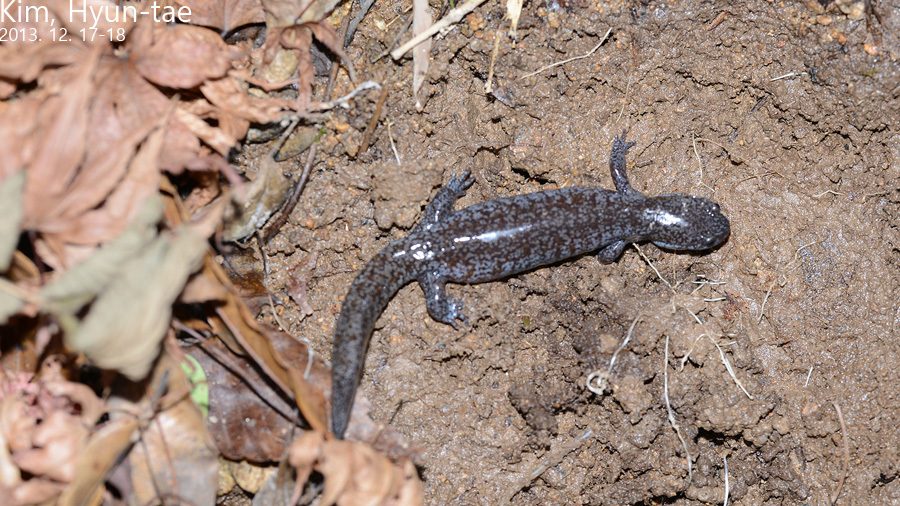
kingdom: Animalia
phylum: Chordata
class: Amphibia
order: Caudata
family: Hynobiidae
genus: Hynobius
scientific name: Hynobius leechii
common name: Gensan salamander
